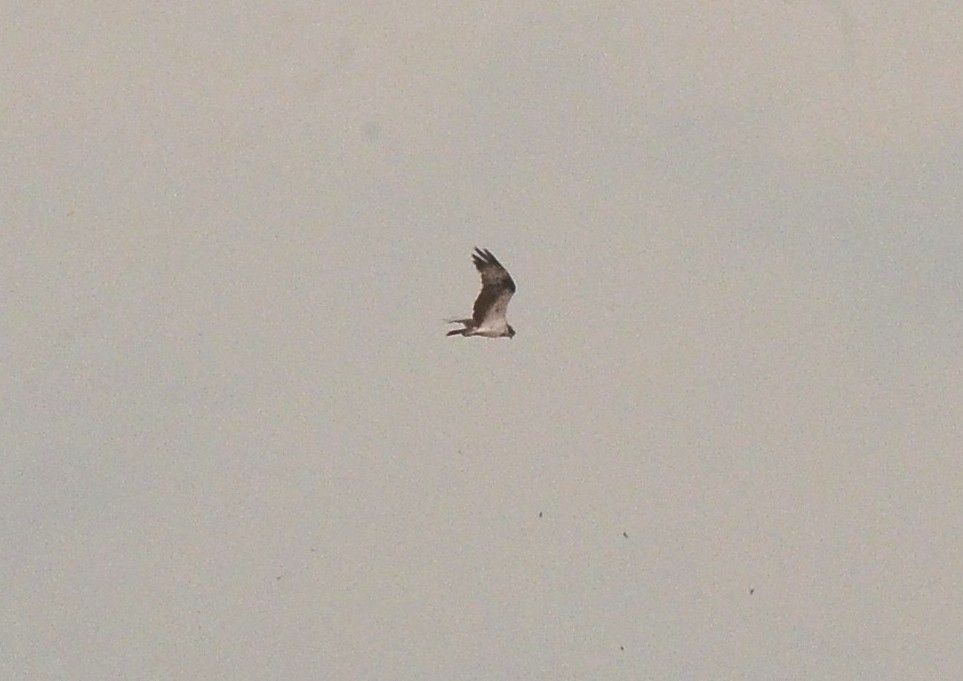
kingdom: Animalia
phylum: Chordata
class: Aves
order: Accipitriformes
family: Pandionidae
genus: Pandion
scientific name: Pandion haliaetus
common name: Osprey
